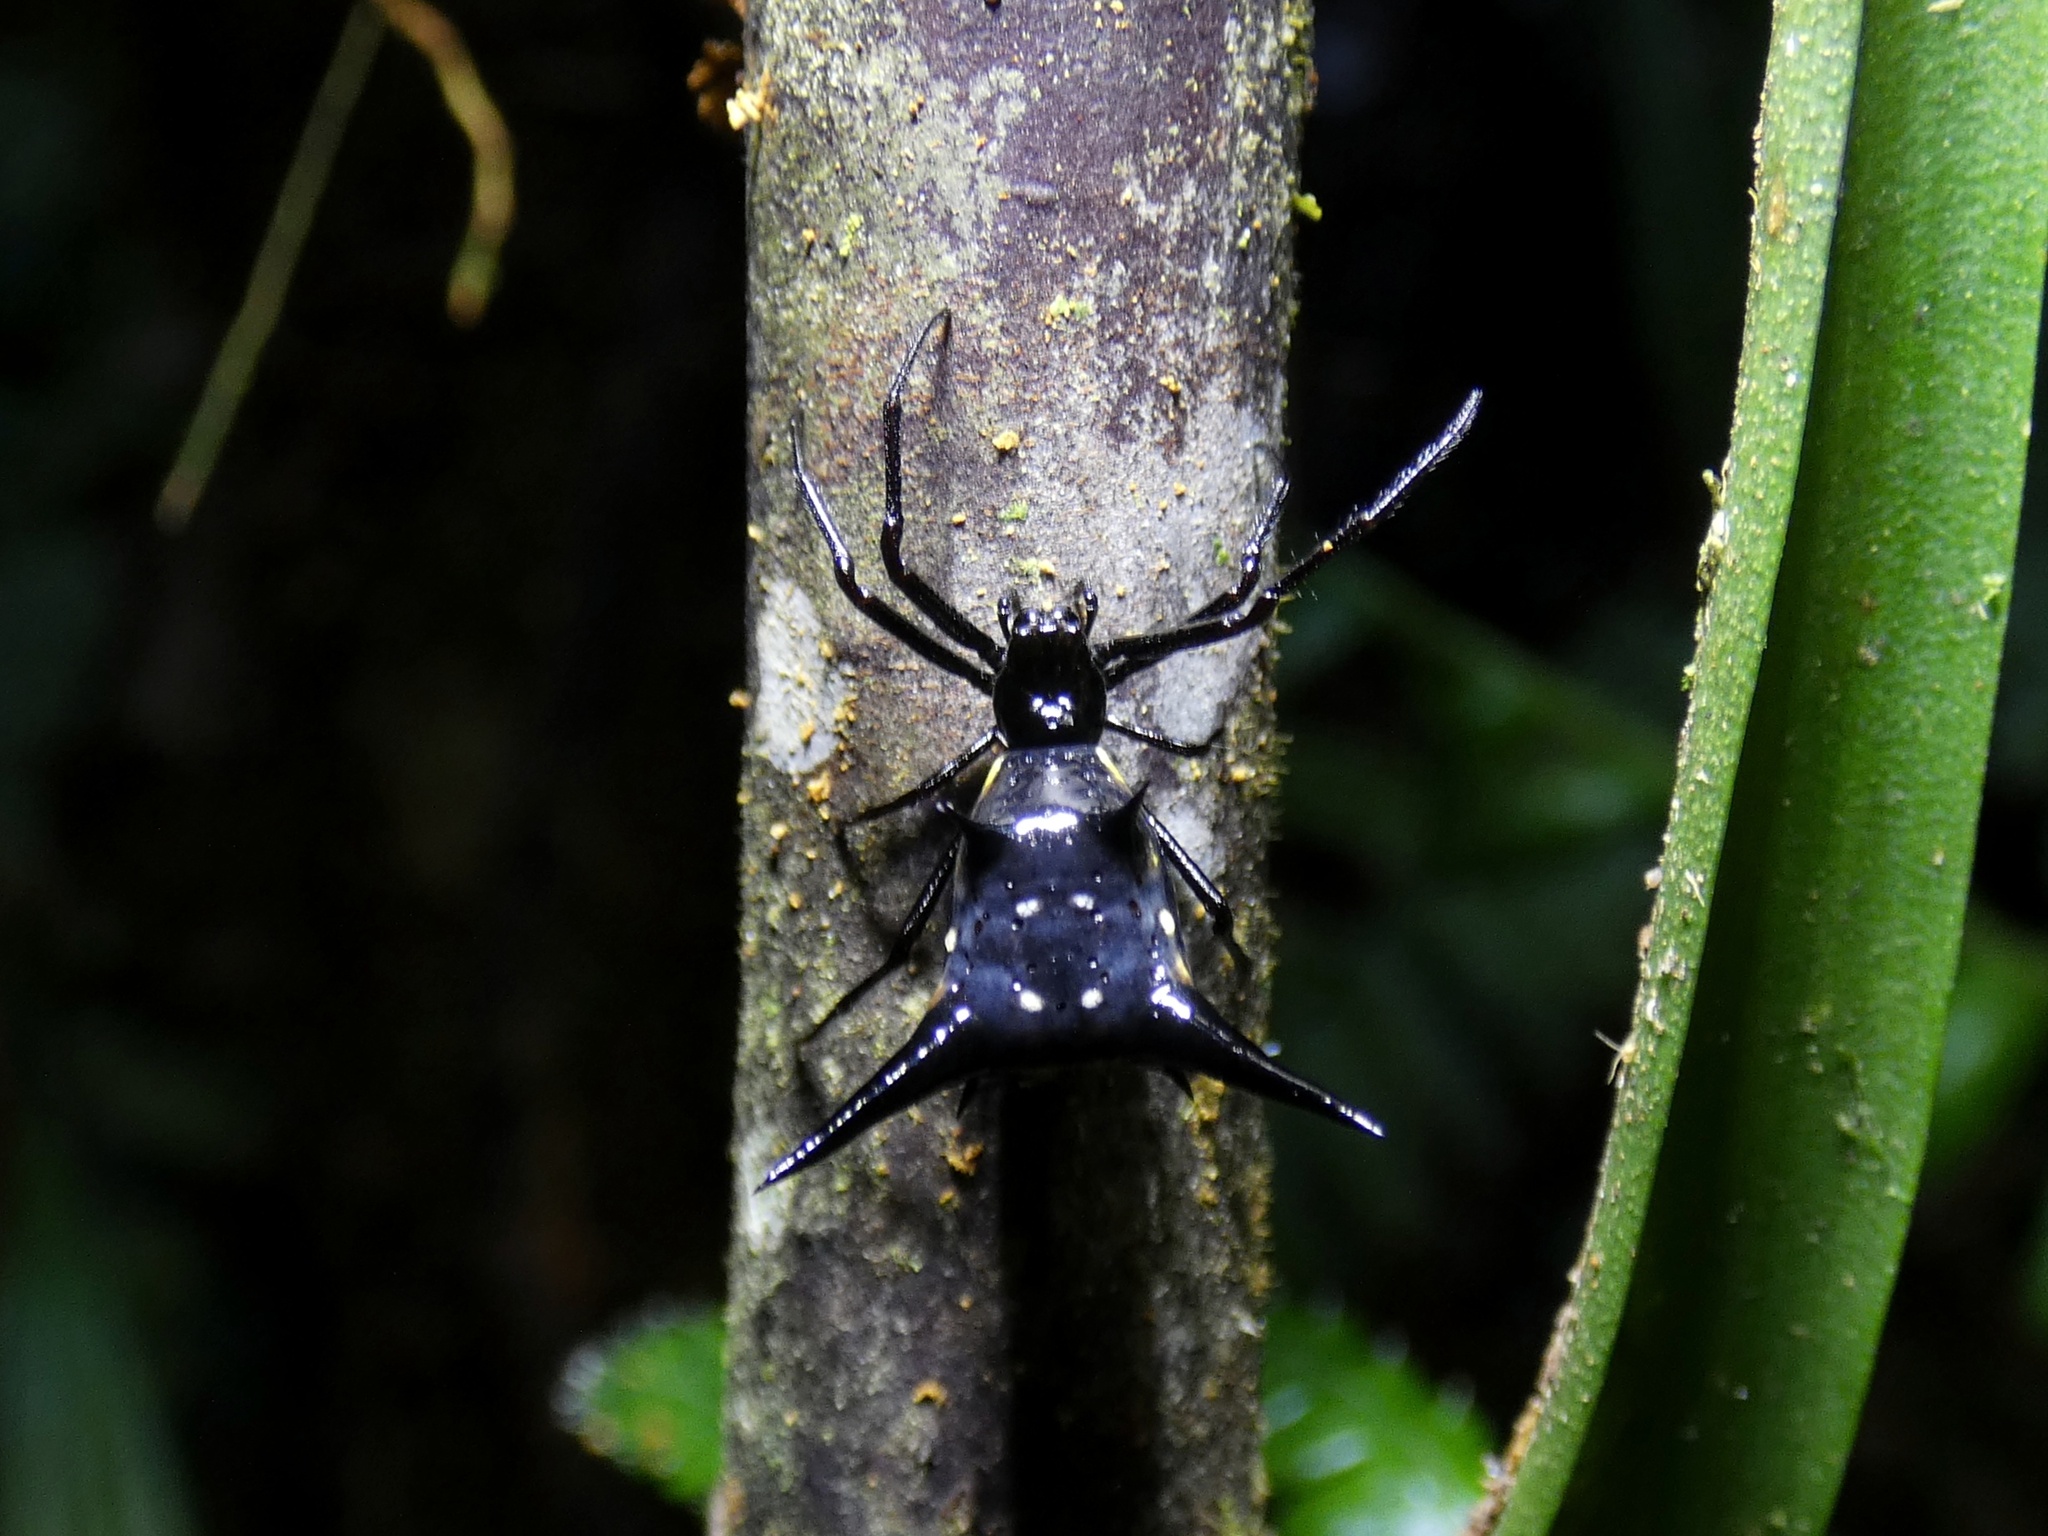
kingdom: Animalia
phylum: Arthropoda
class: Arachnida
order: Araneae
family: Araneidae
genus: Micrathena
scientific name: Micrathena raimondi
